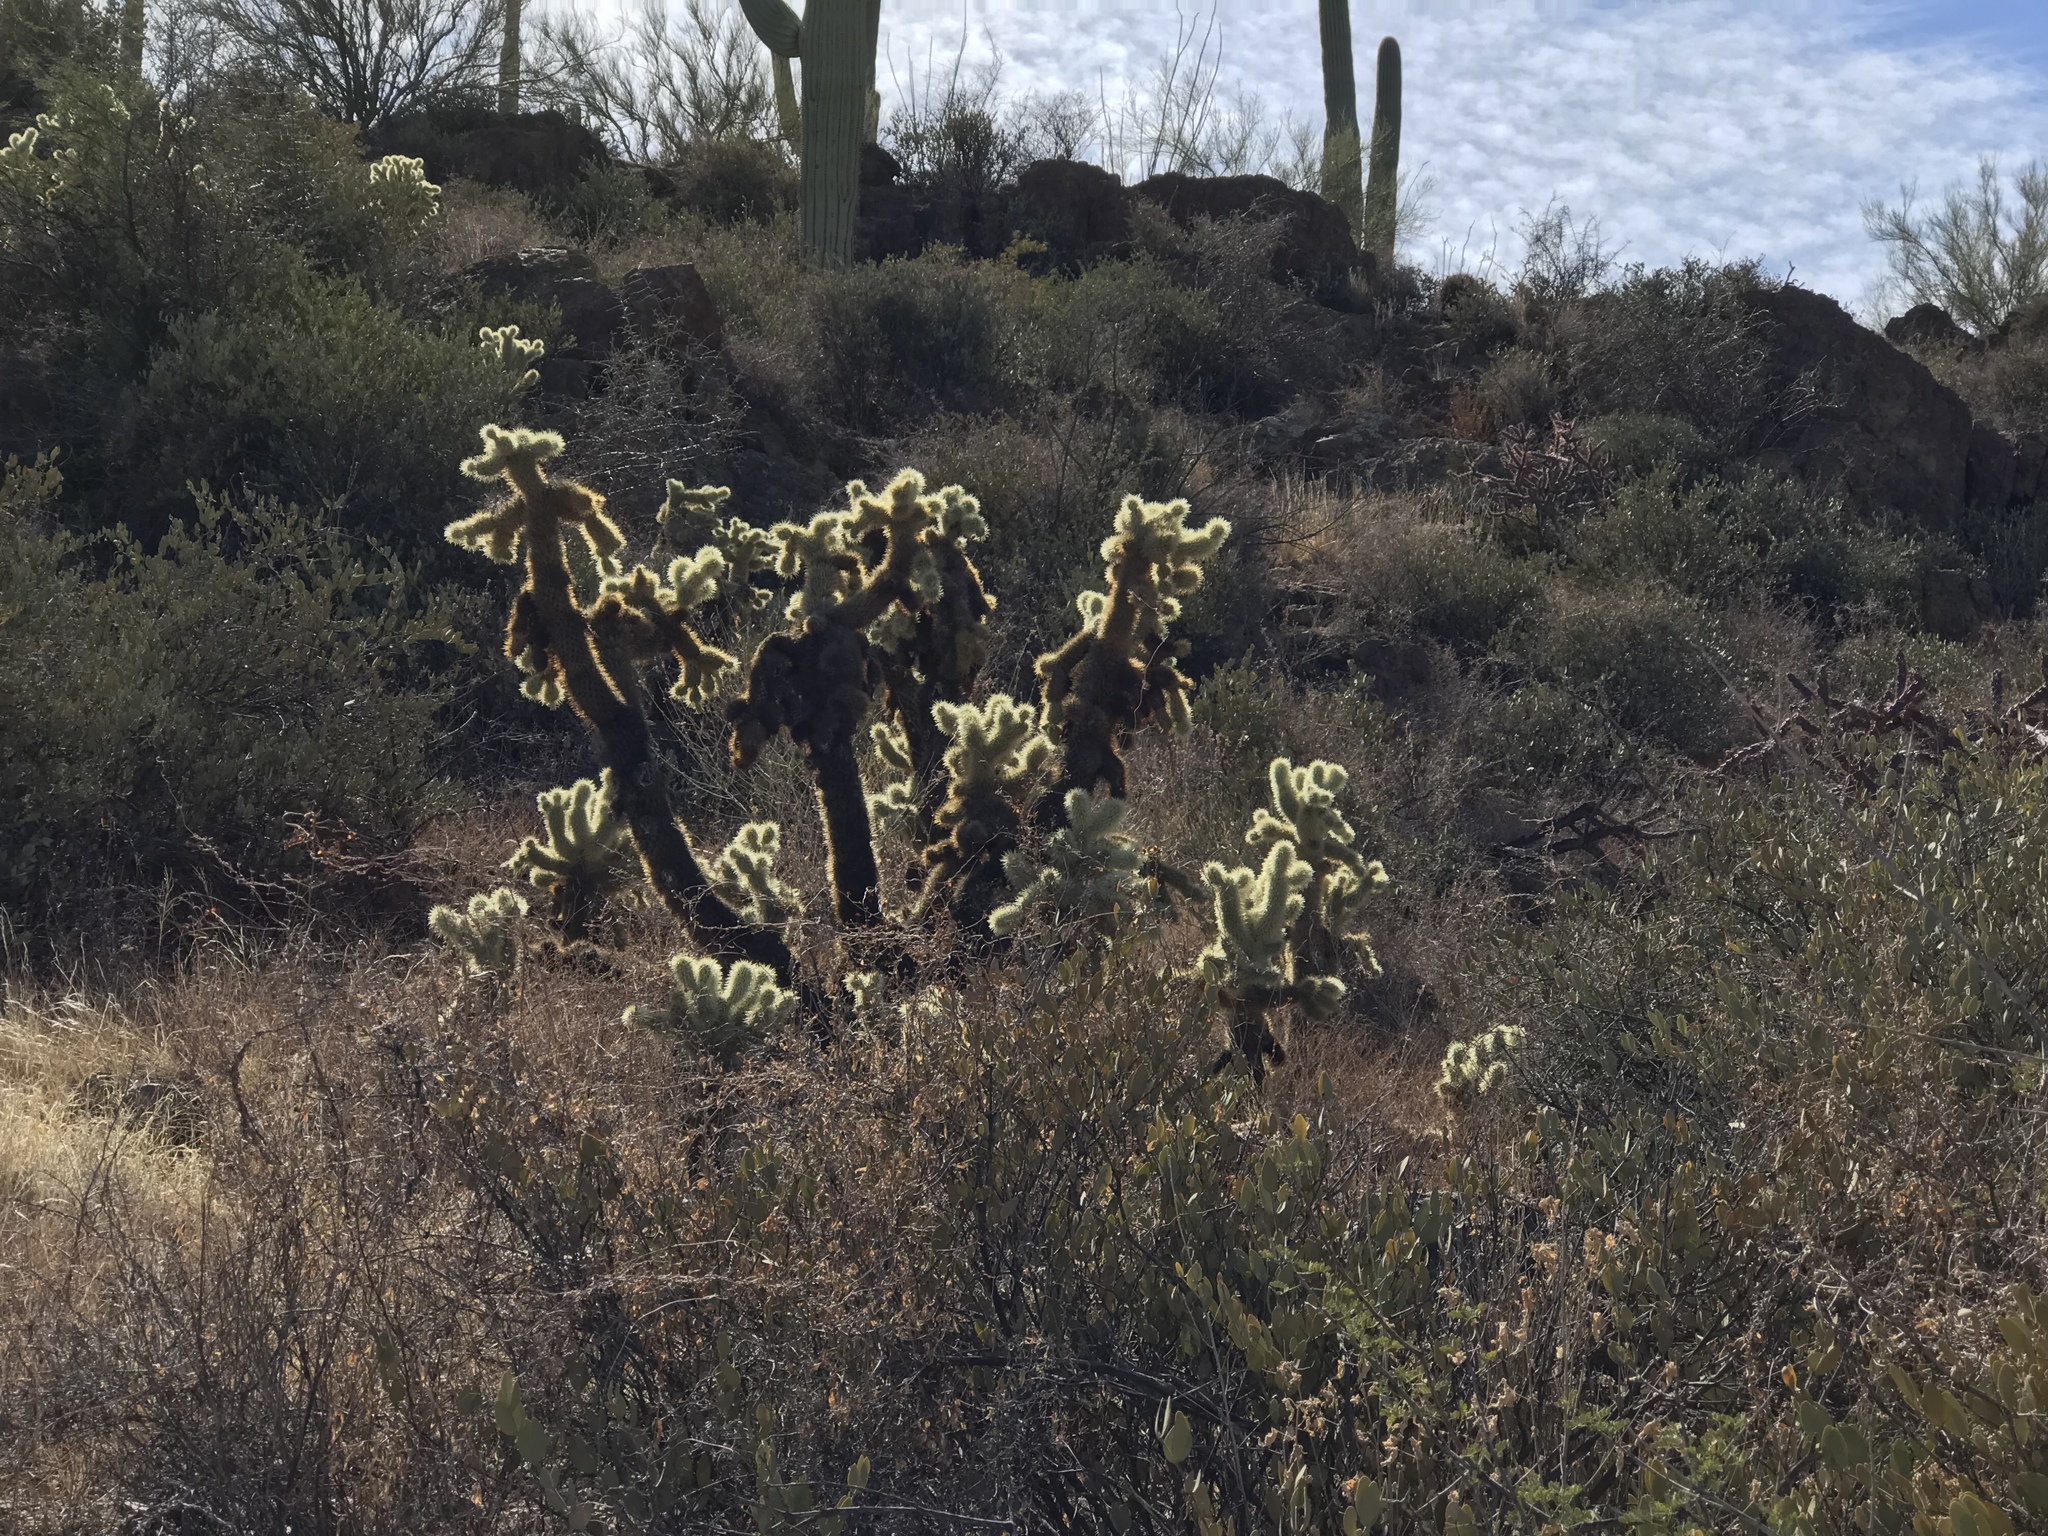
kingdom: Plantae
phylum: Tracheophyta
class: Magnoliopsida
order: Caryophyllales
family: Cactaceae
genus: Cylindropuntia
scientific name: Cylindropuntia fosbergii
